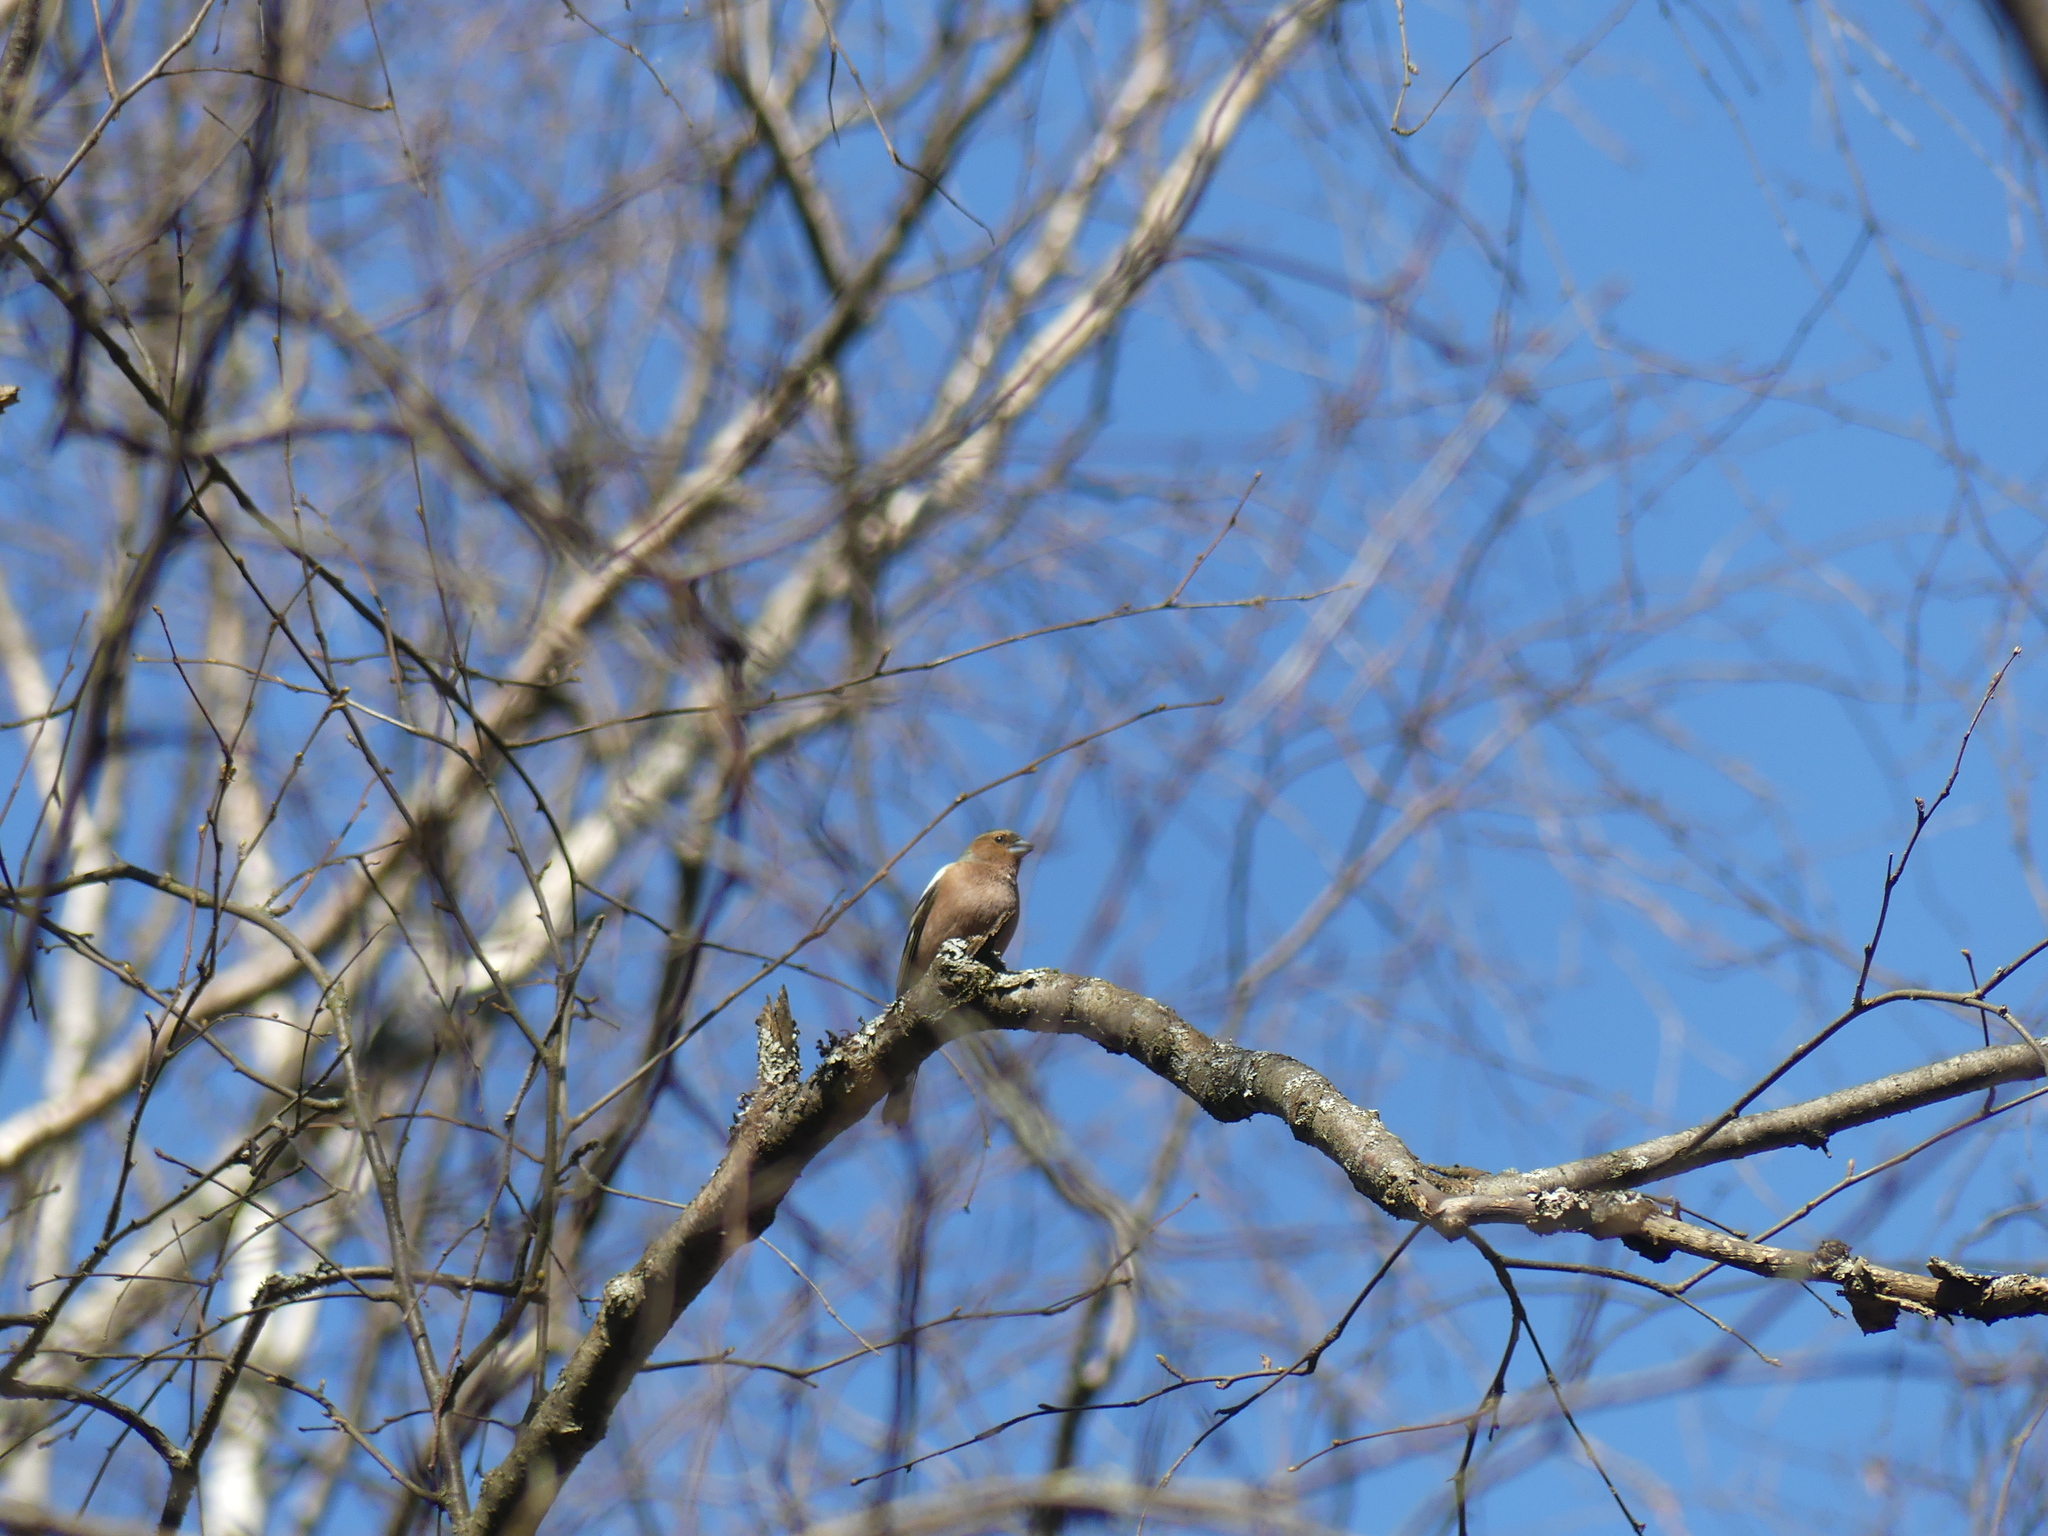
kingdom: Animalia
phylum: Chordata
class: Aves
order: Passeriformes
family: Fringillidae
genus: Fringilla
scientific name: Fringilla coelebs
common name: Common chaffinch
